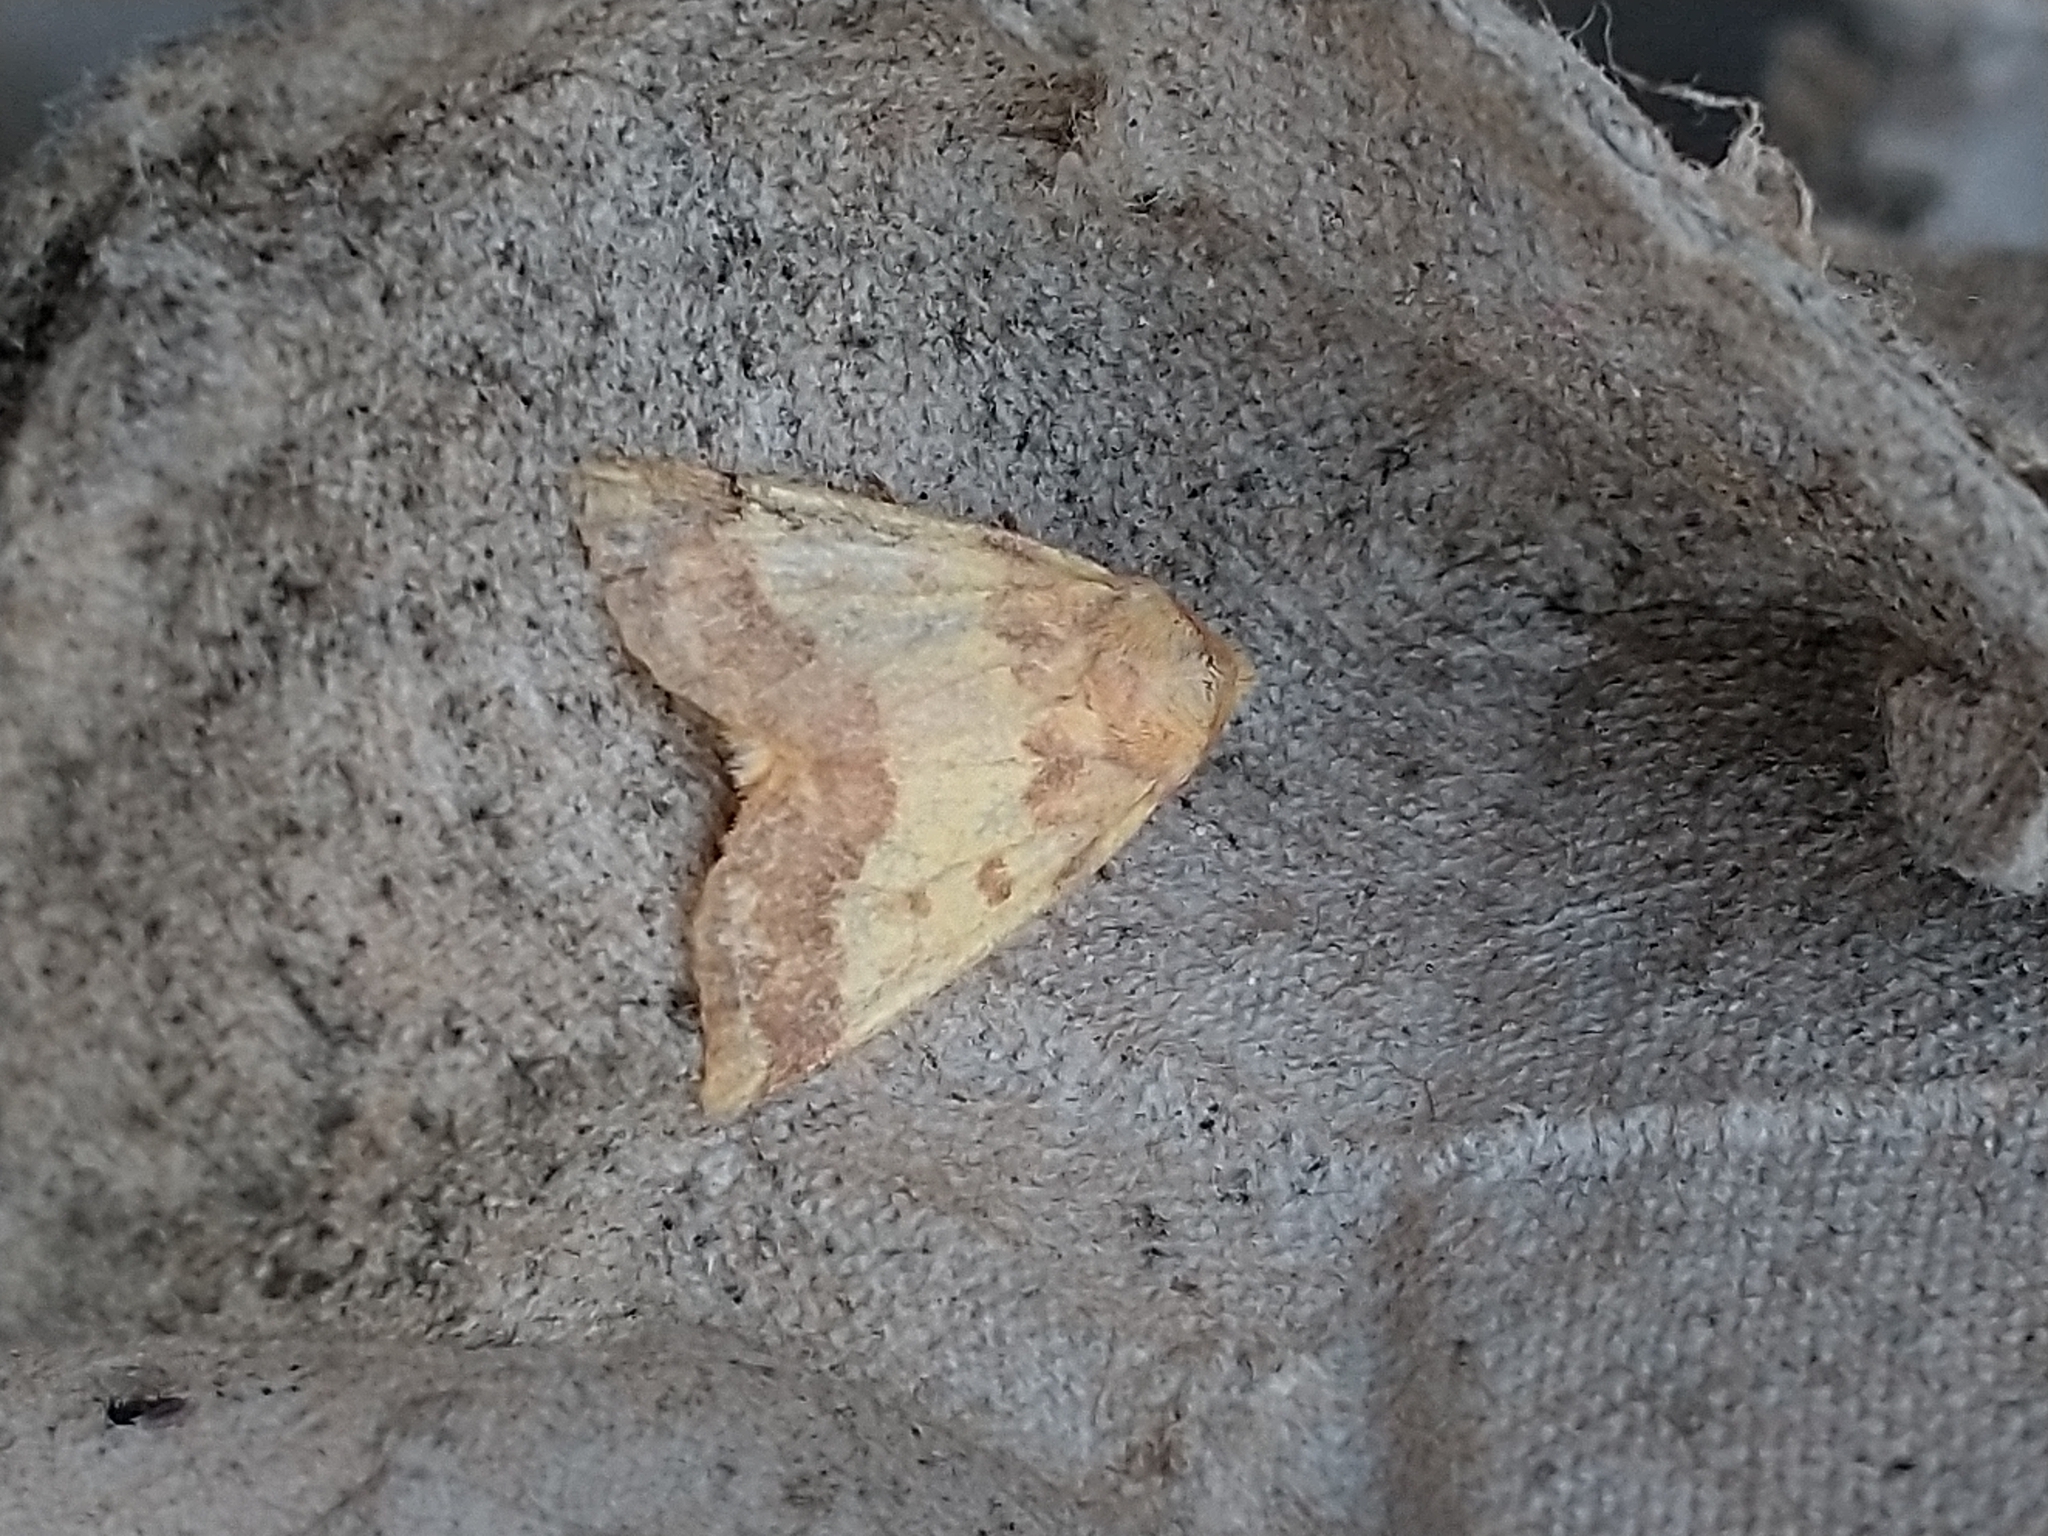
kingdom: Animalia
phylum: Arthropoda
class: Insecta
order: Lepidoptera
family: Noctuidae
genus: Tiliacea
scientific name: Tiliacea aurago
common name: Barred sallow
